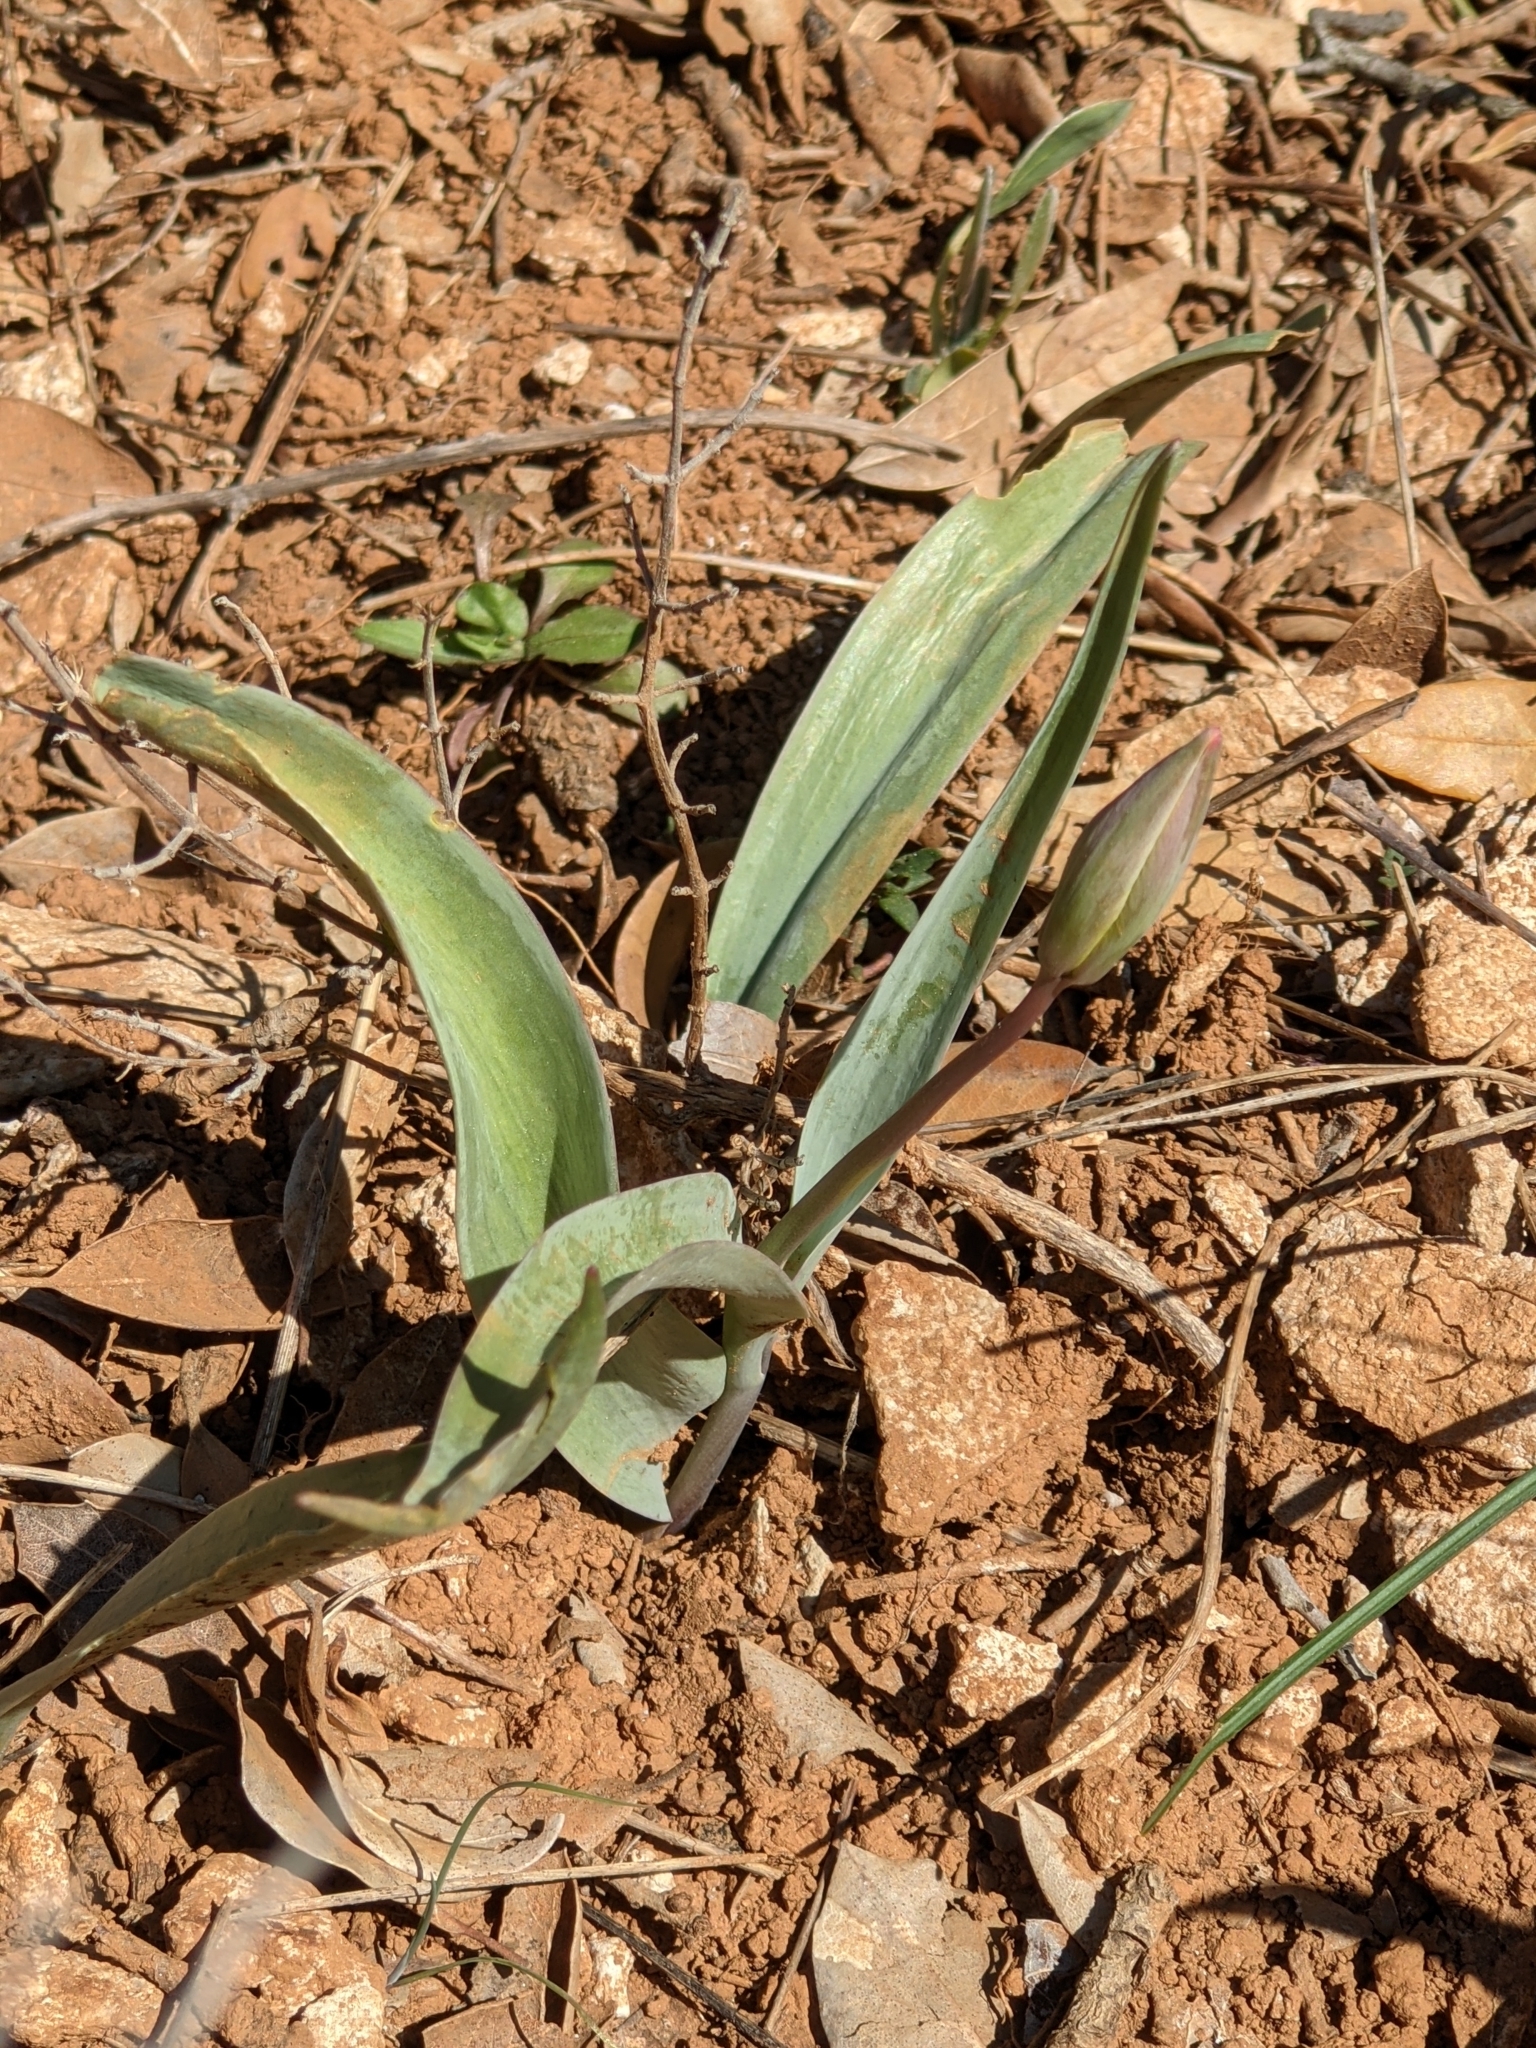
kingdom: Plantae
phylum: Tracheophyta
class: Liliopsida
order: Liliales
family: Liliaceae
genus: Tulipa
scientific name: Tulipa sylvestris
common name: Wild tulip
